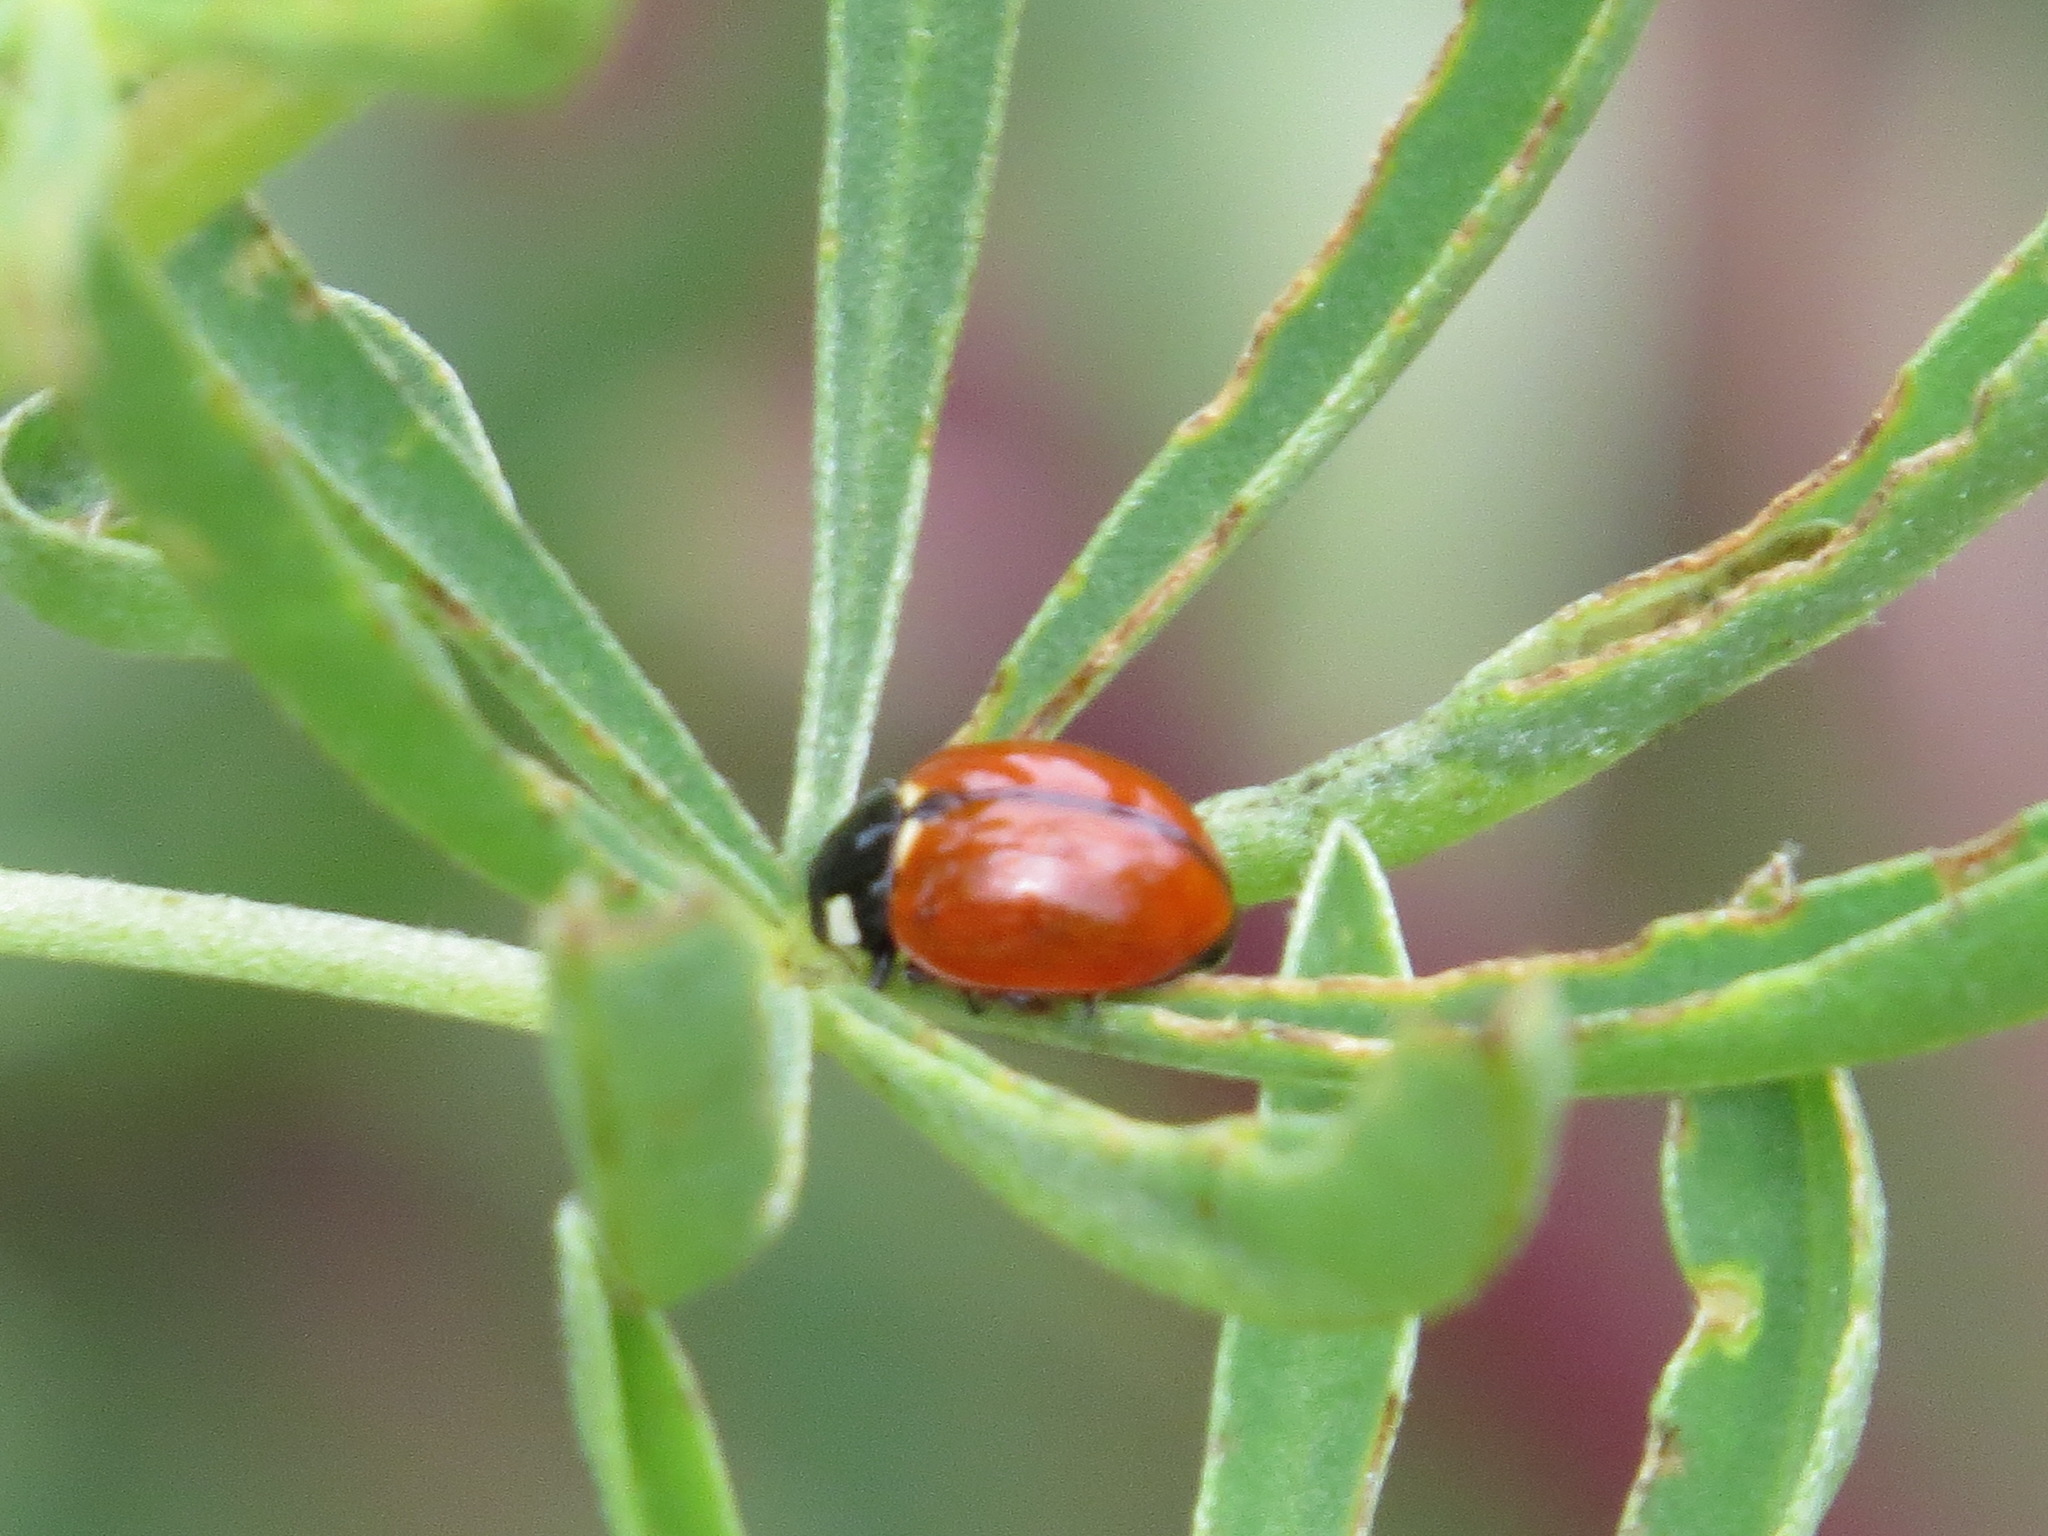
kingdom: Animalia
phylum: Arthropoda
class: Insecta
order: Coleoptera
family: Coccinellidae
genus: Coccinella
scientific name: Coccinella californica
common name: Lady beetle
